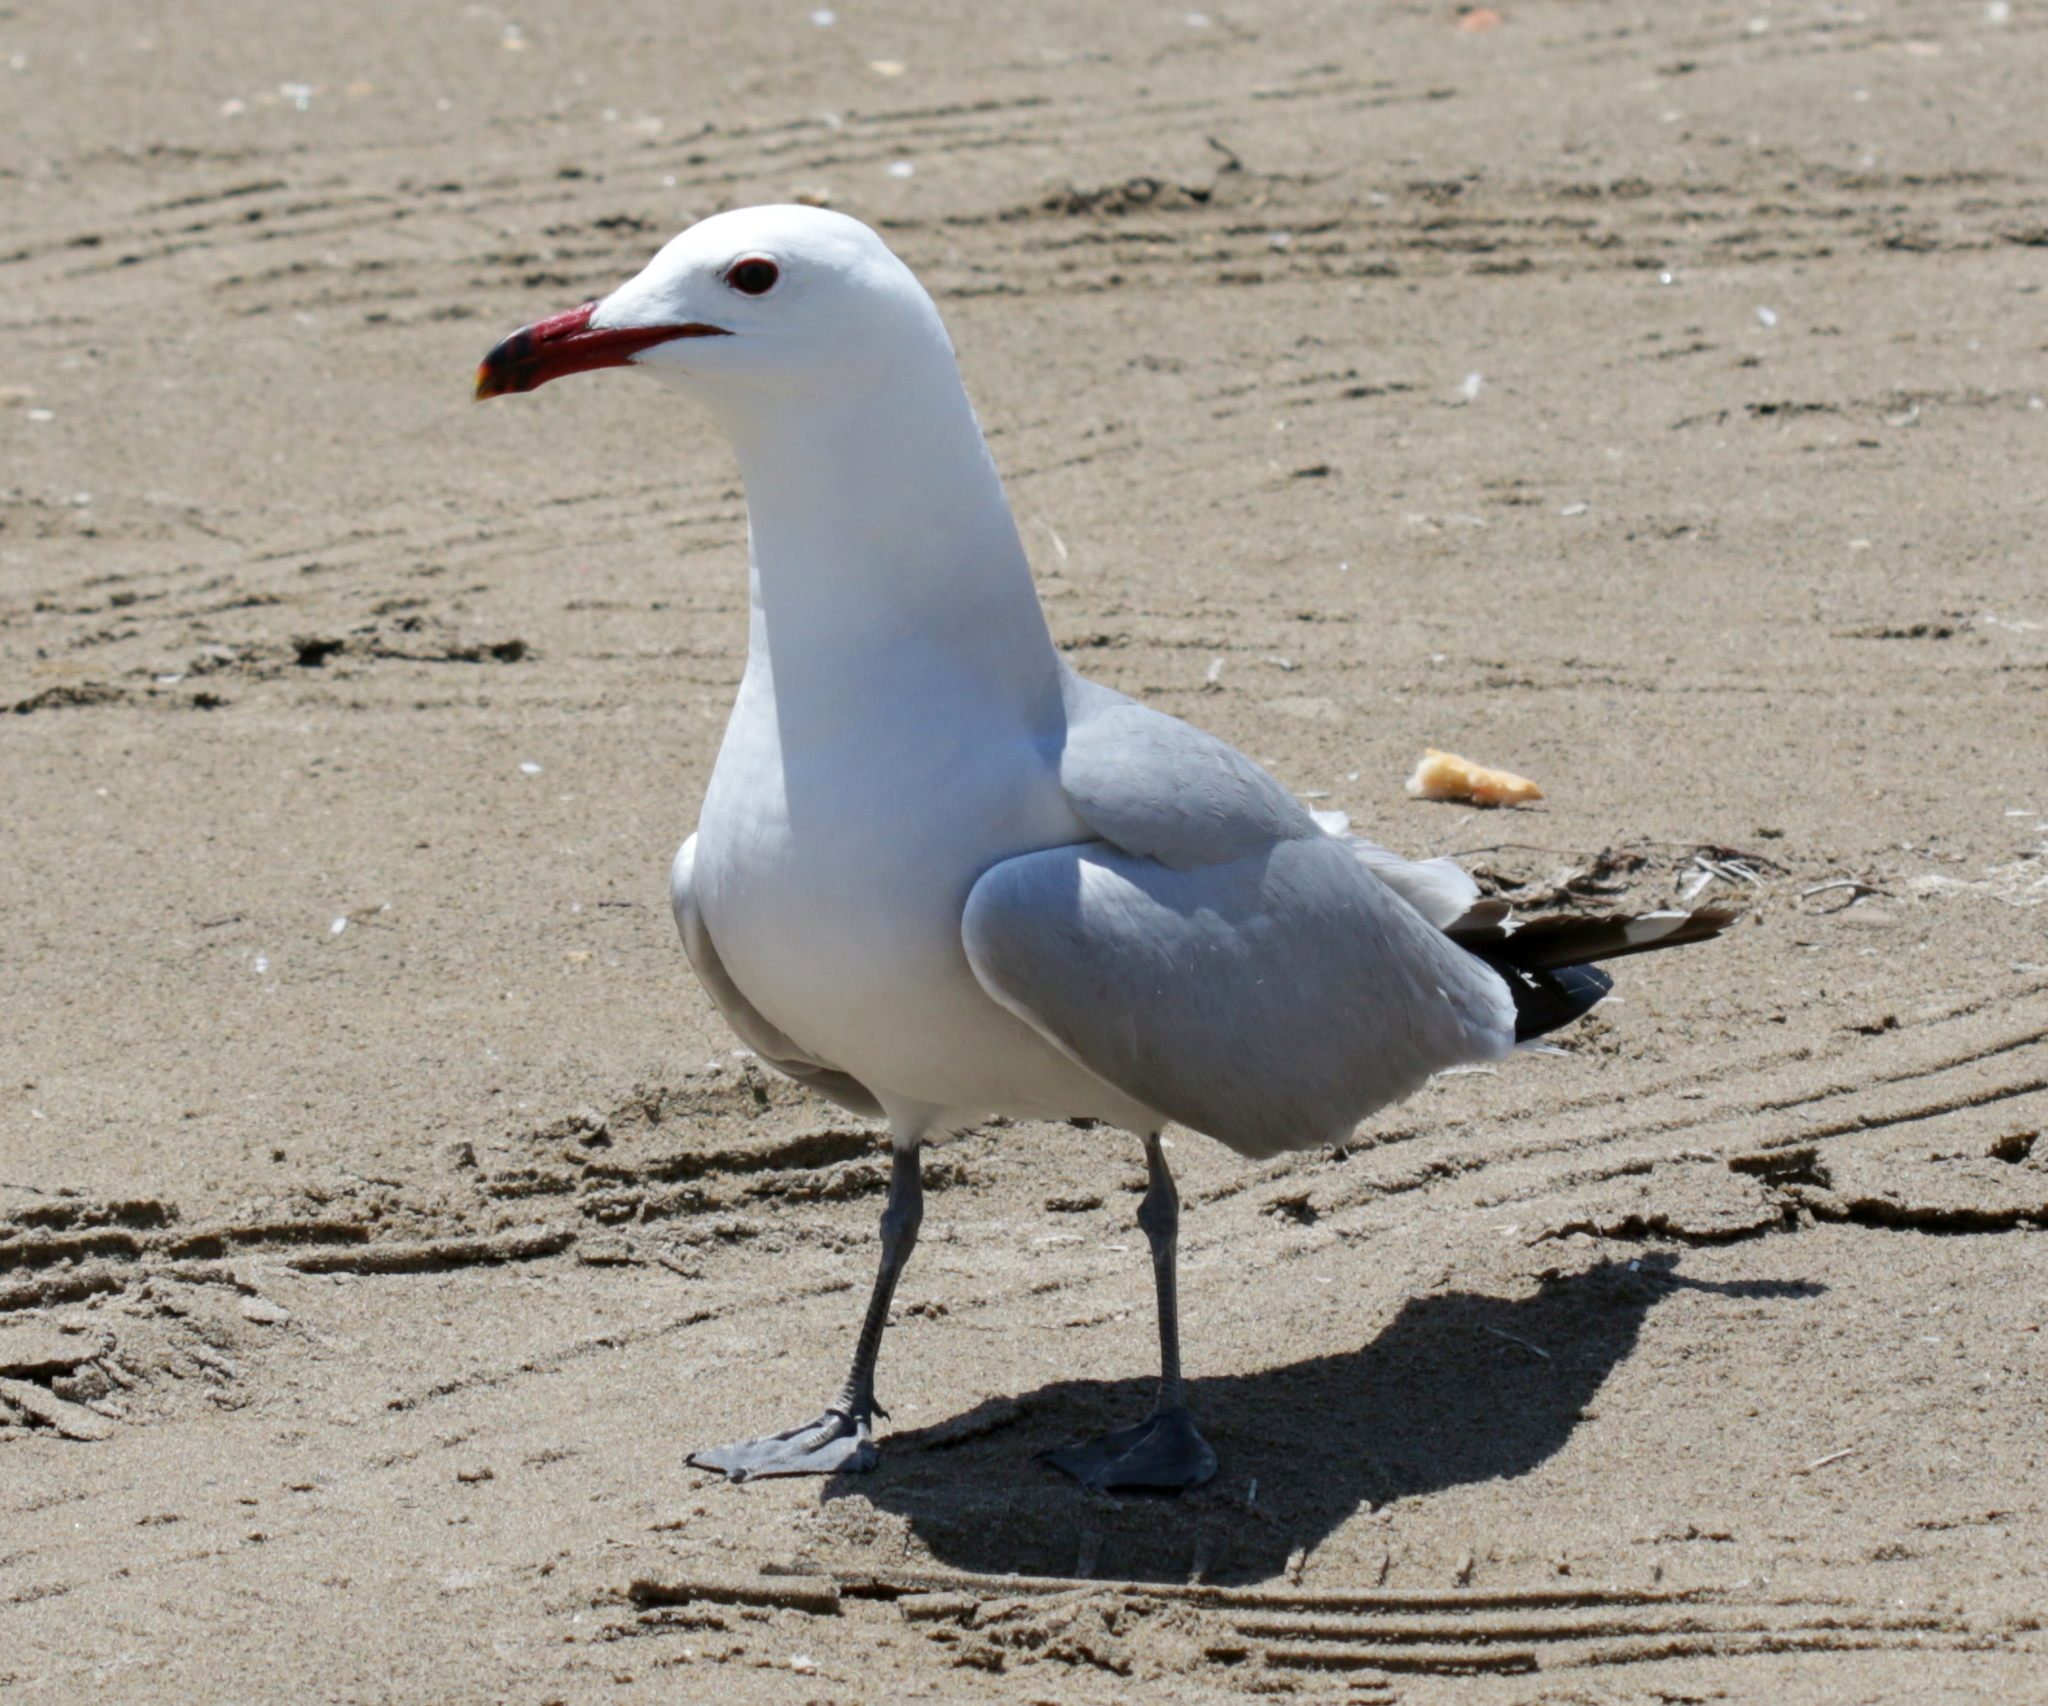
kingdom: Animalia
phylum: Chordata
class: Aves
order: Charadriiformes
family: Laridae
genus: Ichthyaetus
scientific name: Ichthyaetus audouinii
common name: Audouin's gull
